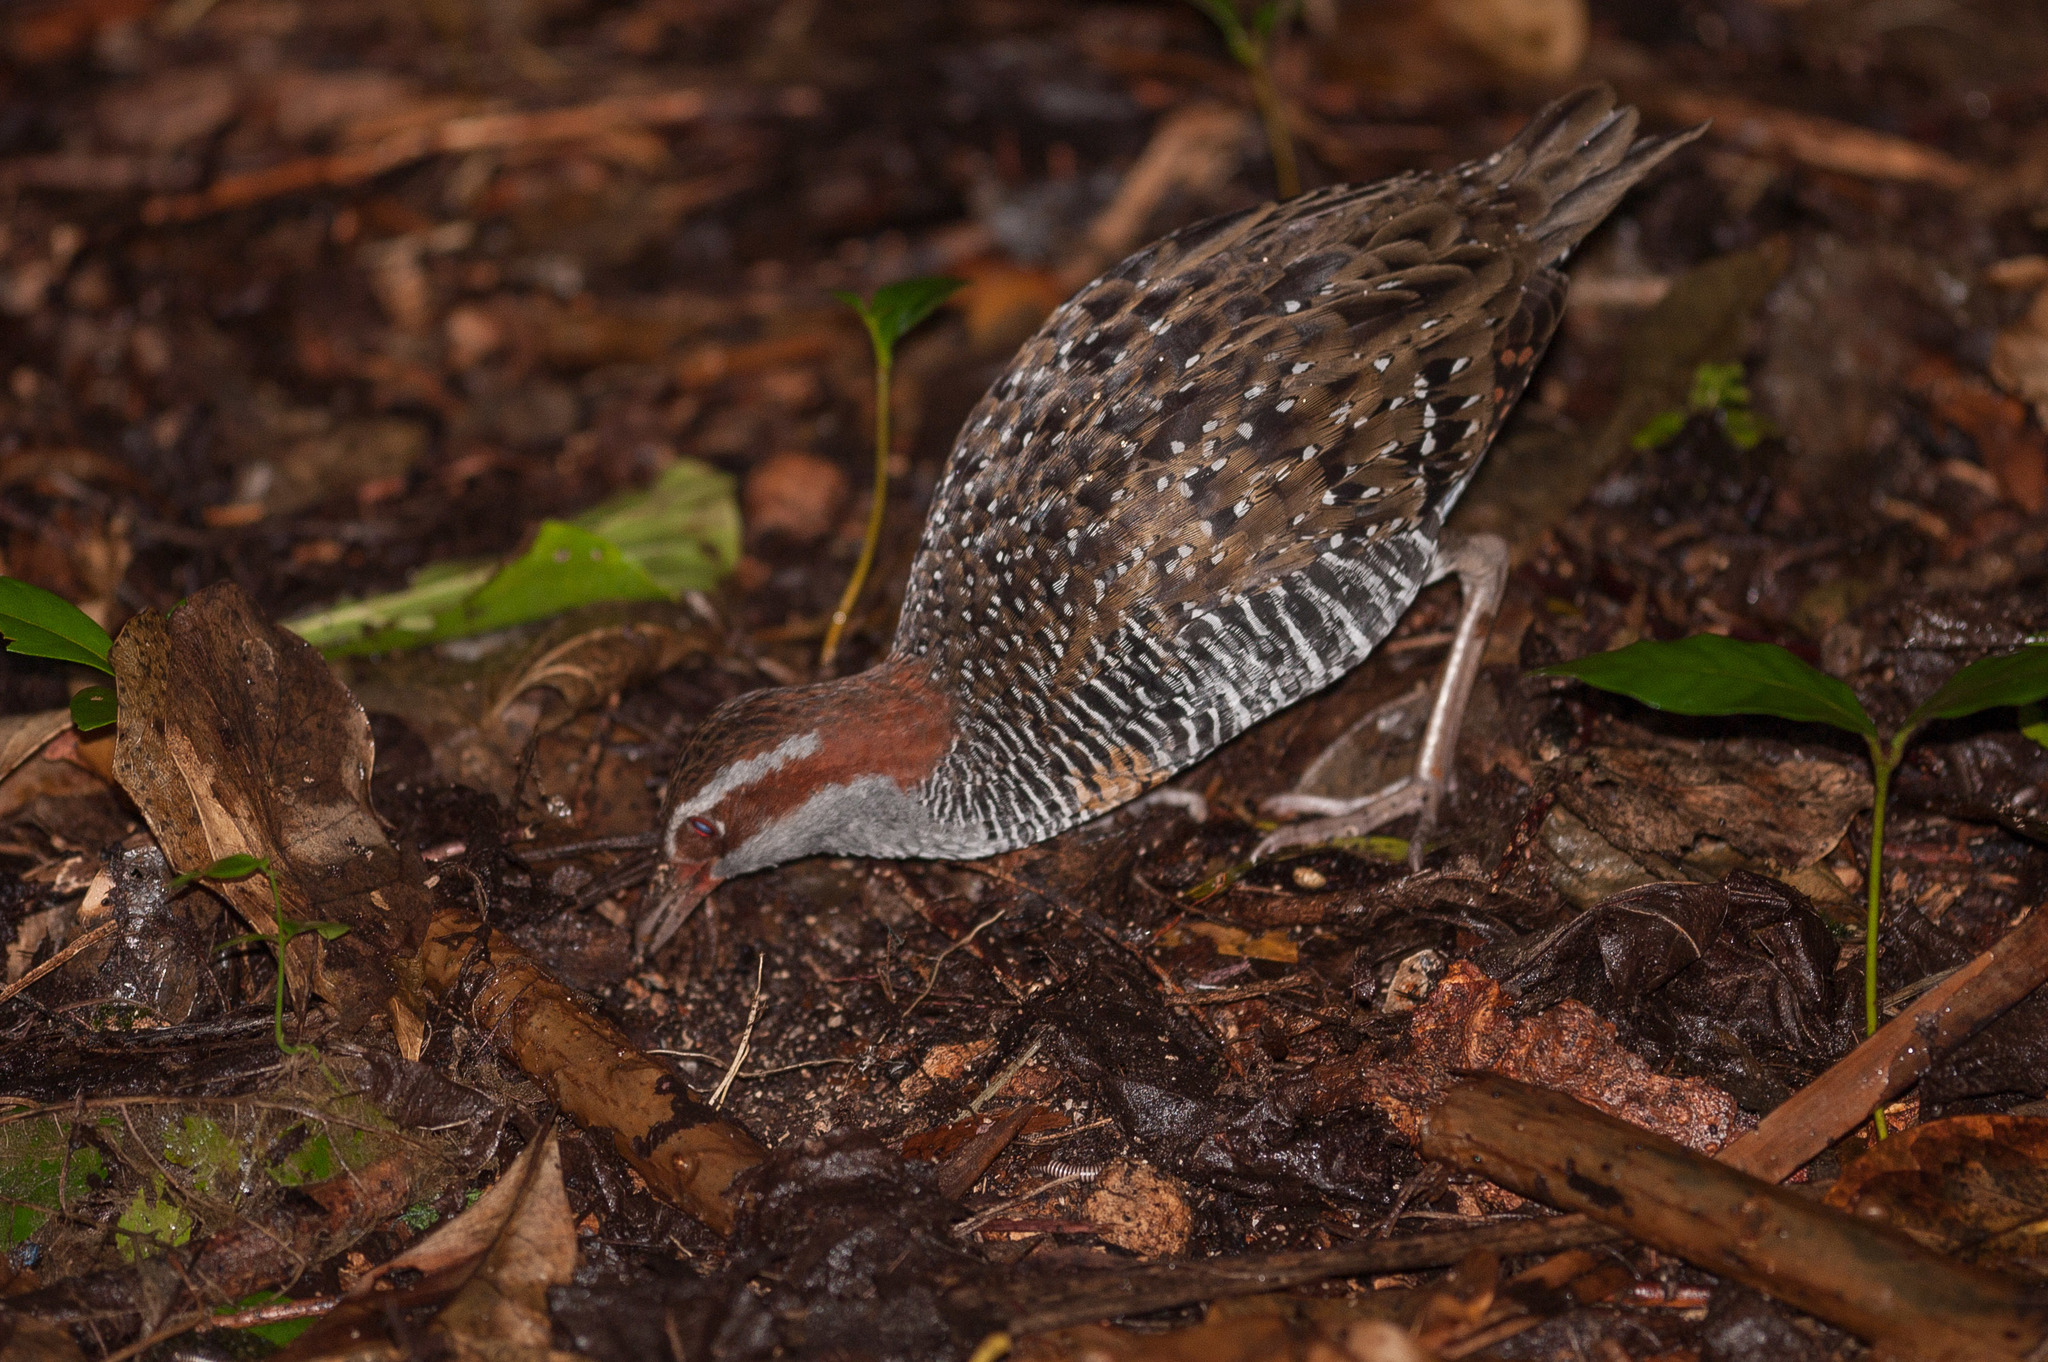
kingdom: Animalia
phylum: Chordata
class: Aves
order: Gruiformes
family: Rallidae
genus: Gallirallus
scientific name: Gallirallus philippensis
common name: Buff-banded rail
